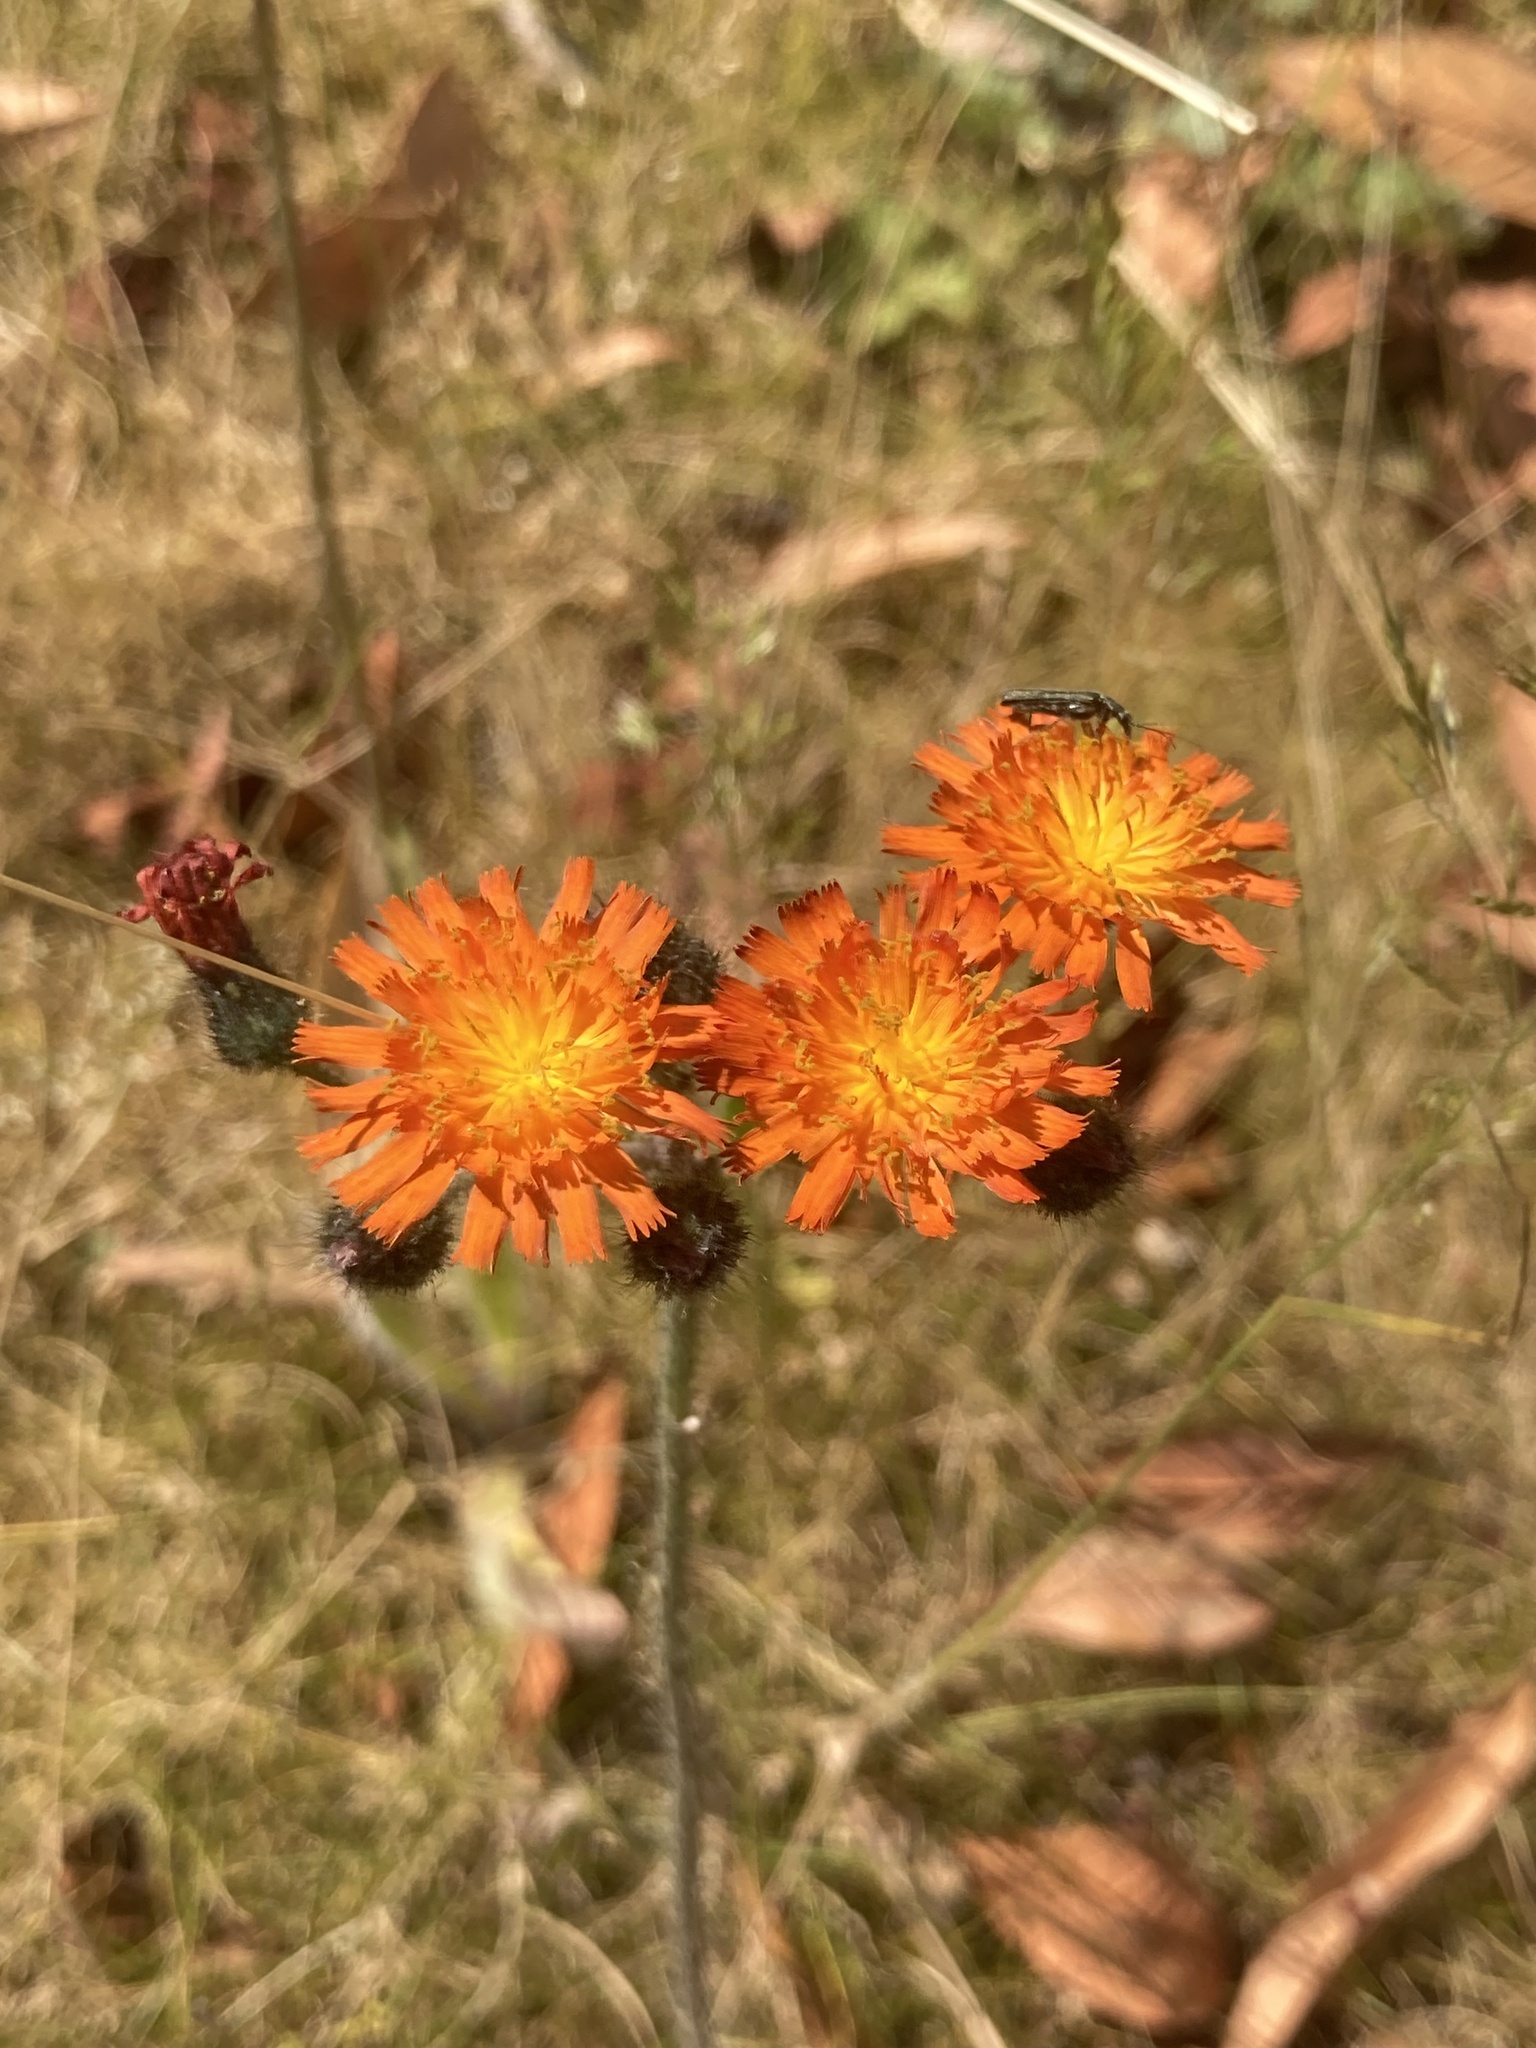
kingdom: Plantae
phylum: Tracheophyta
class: Magnoliopsida
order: Asterales
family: Asteraceae
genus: Pilosella
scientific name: Pilosella aurantiaca
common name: Fox-and-cubs
